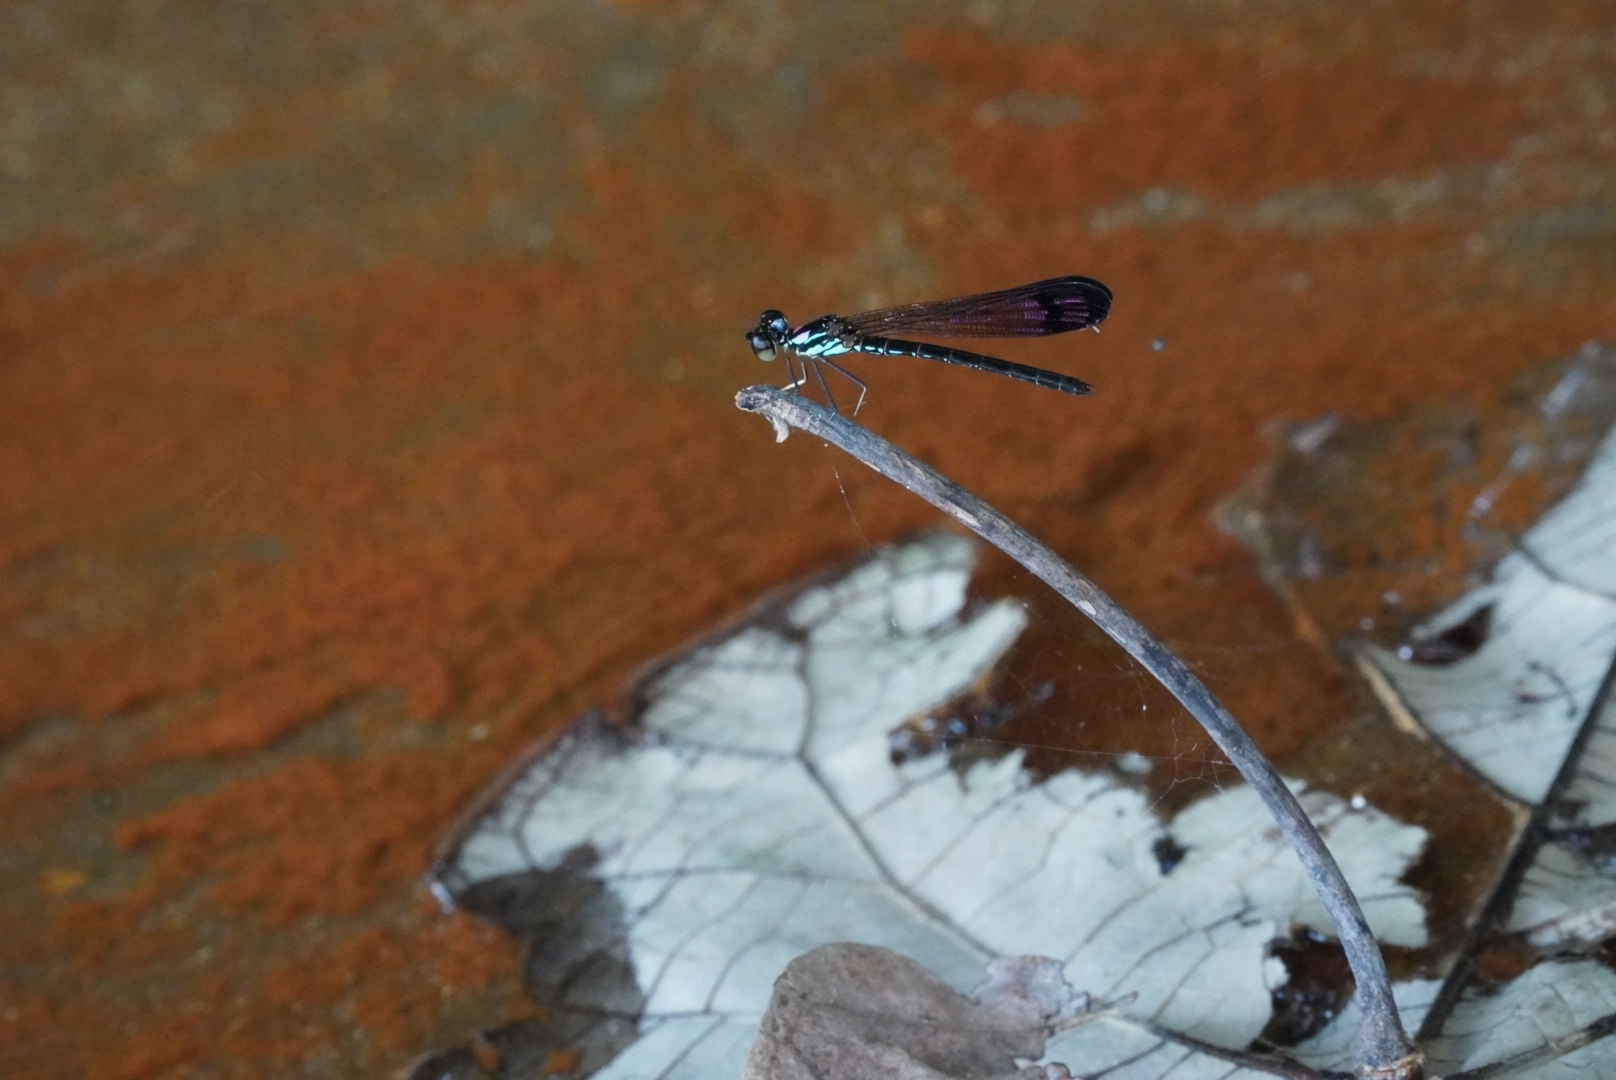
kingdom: Animalia
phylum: Arthropoda
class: Insecta
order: Odonata
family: Chlorocyphidae
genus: Heliocypha
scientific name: Heliocypha biforata
